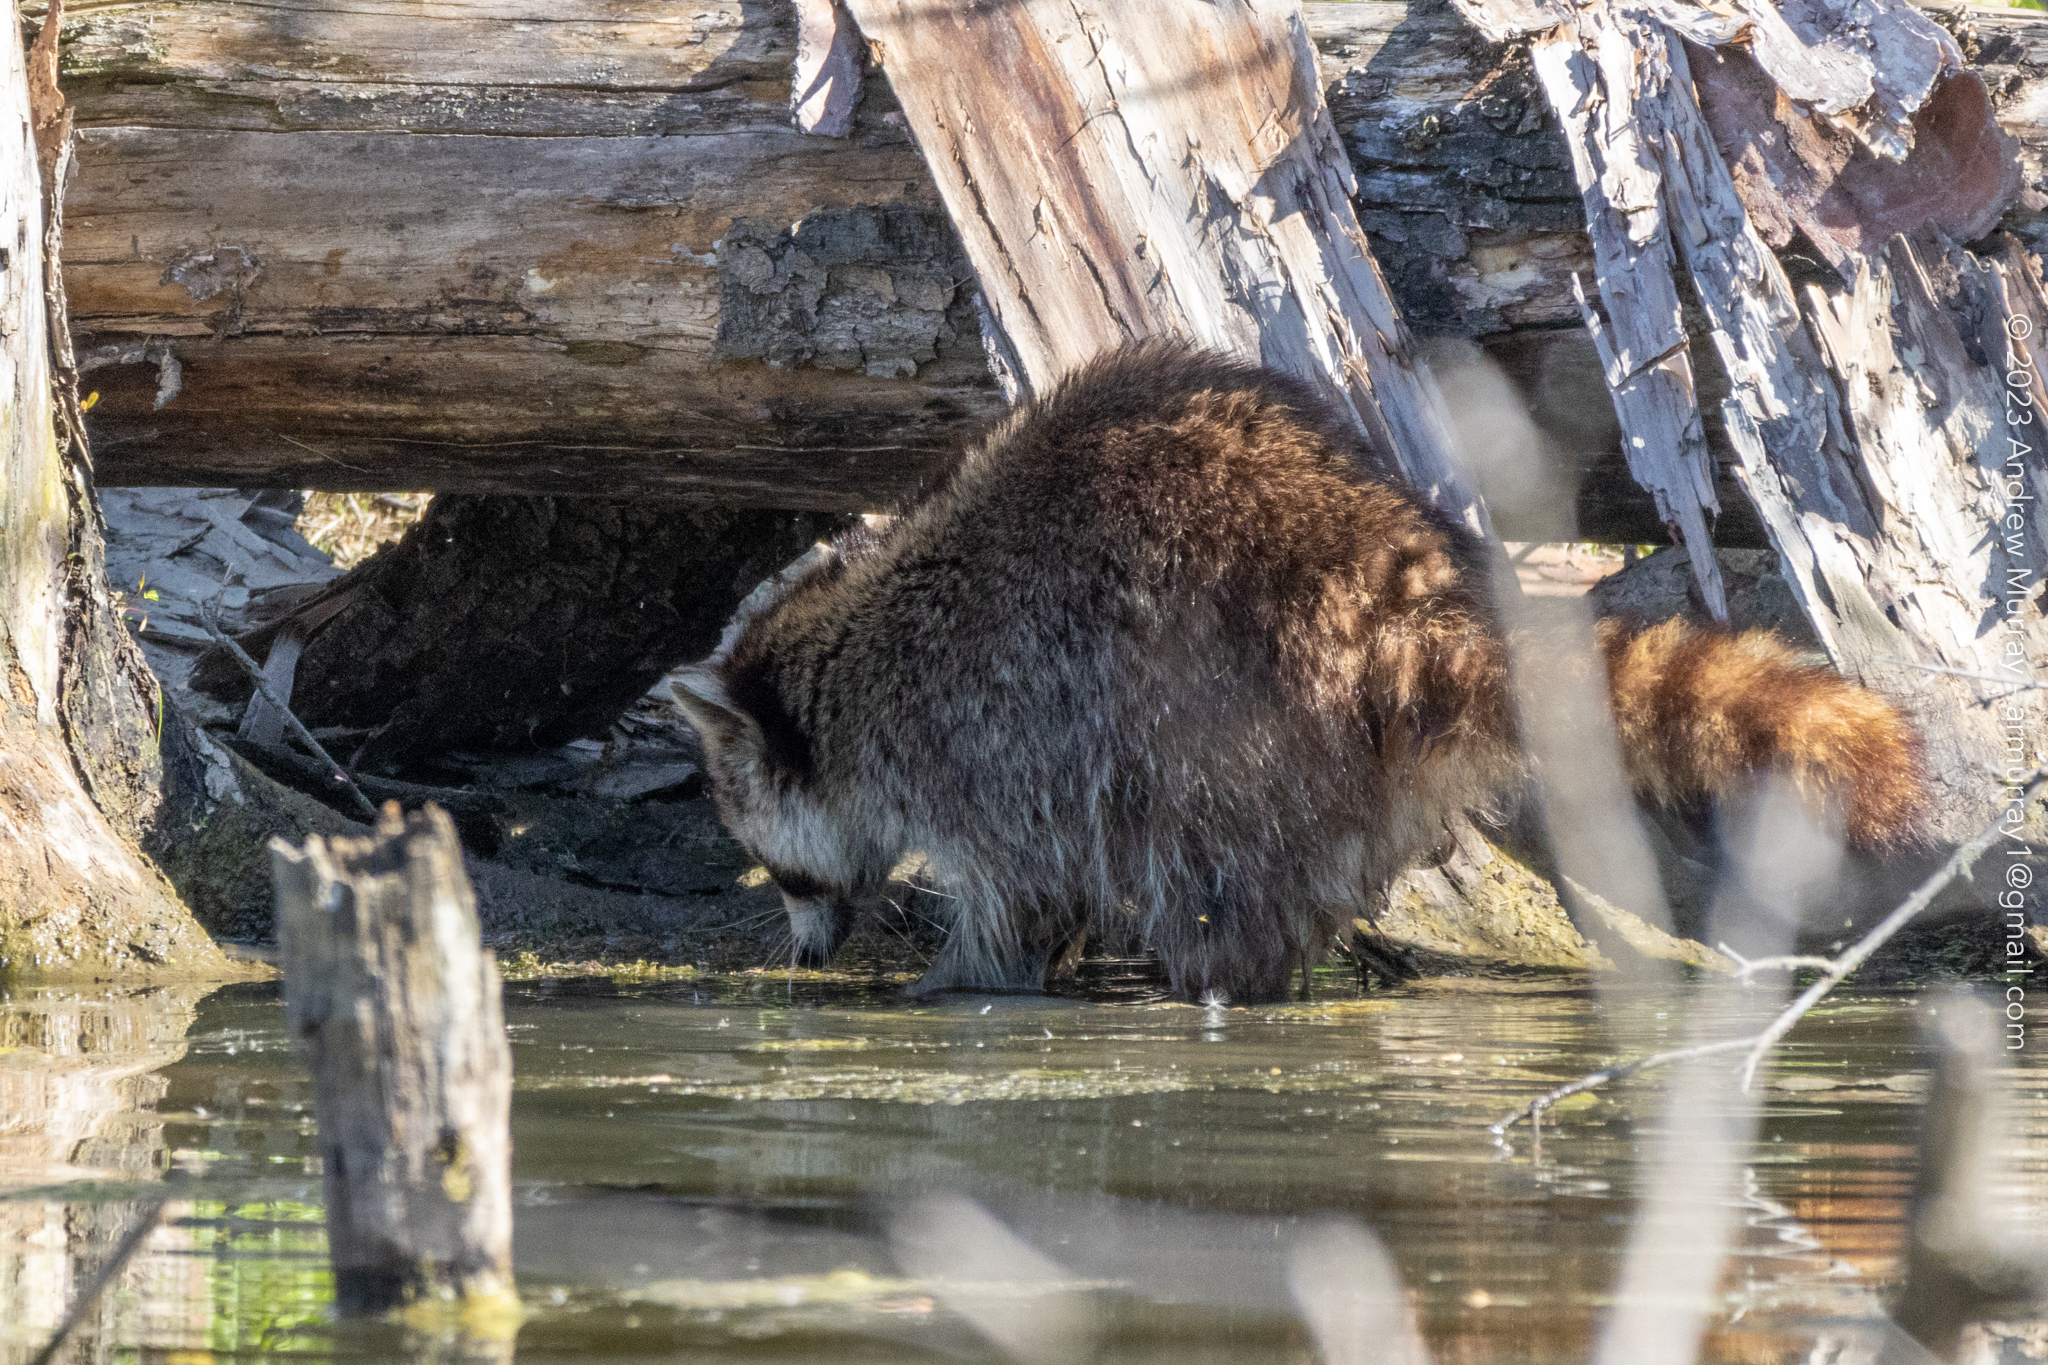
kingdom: Animalia
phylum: Chordata
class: Mammalia
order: Carnivora
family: Procyonidae
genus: Procyon
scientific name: Procyon lotor
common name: Raccoon
